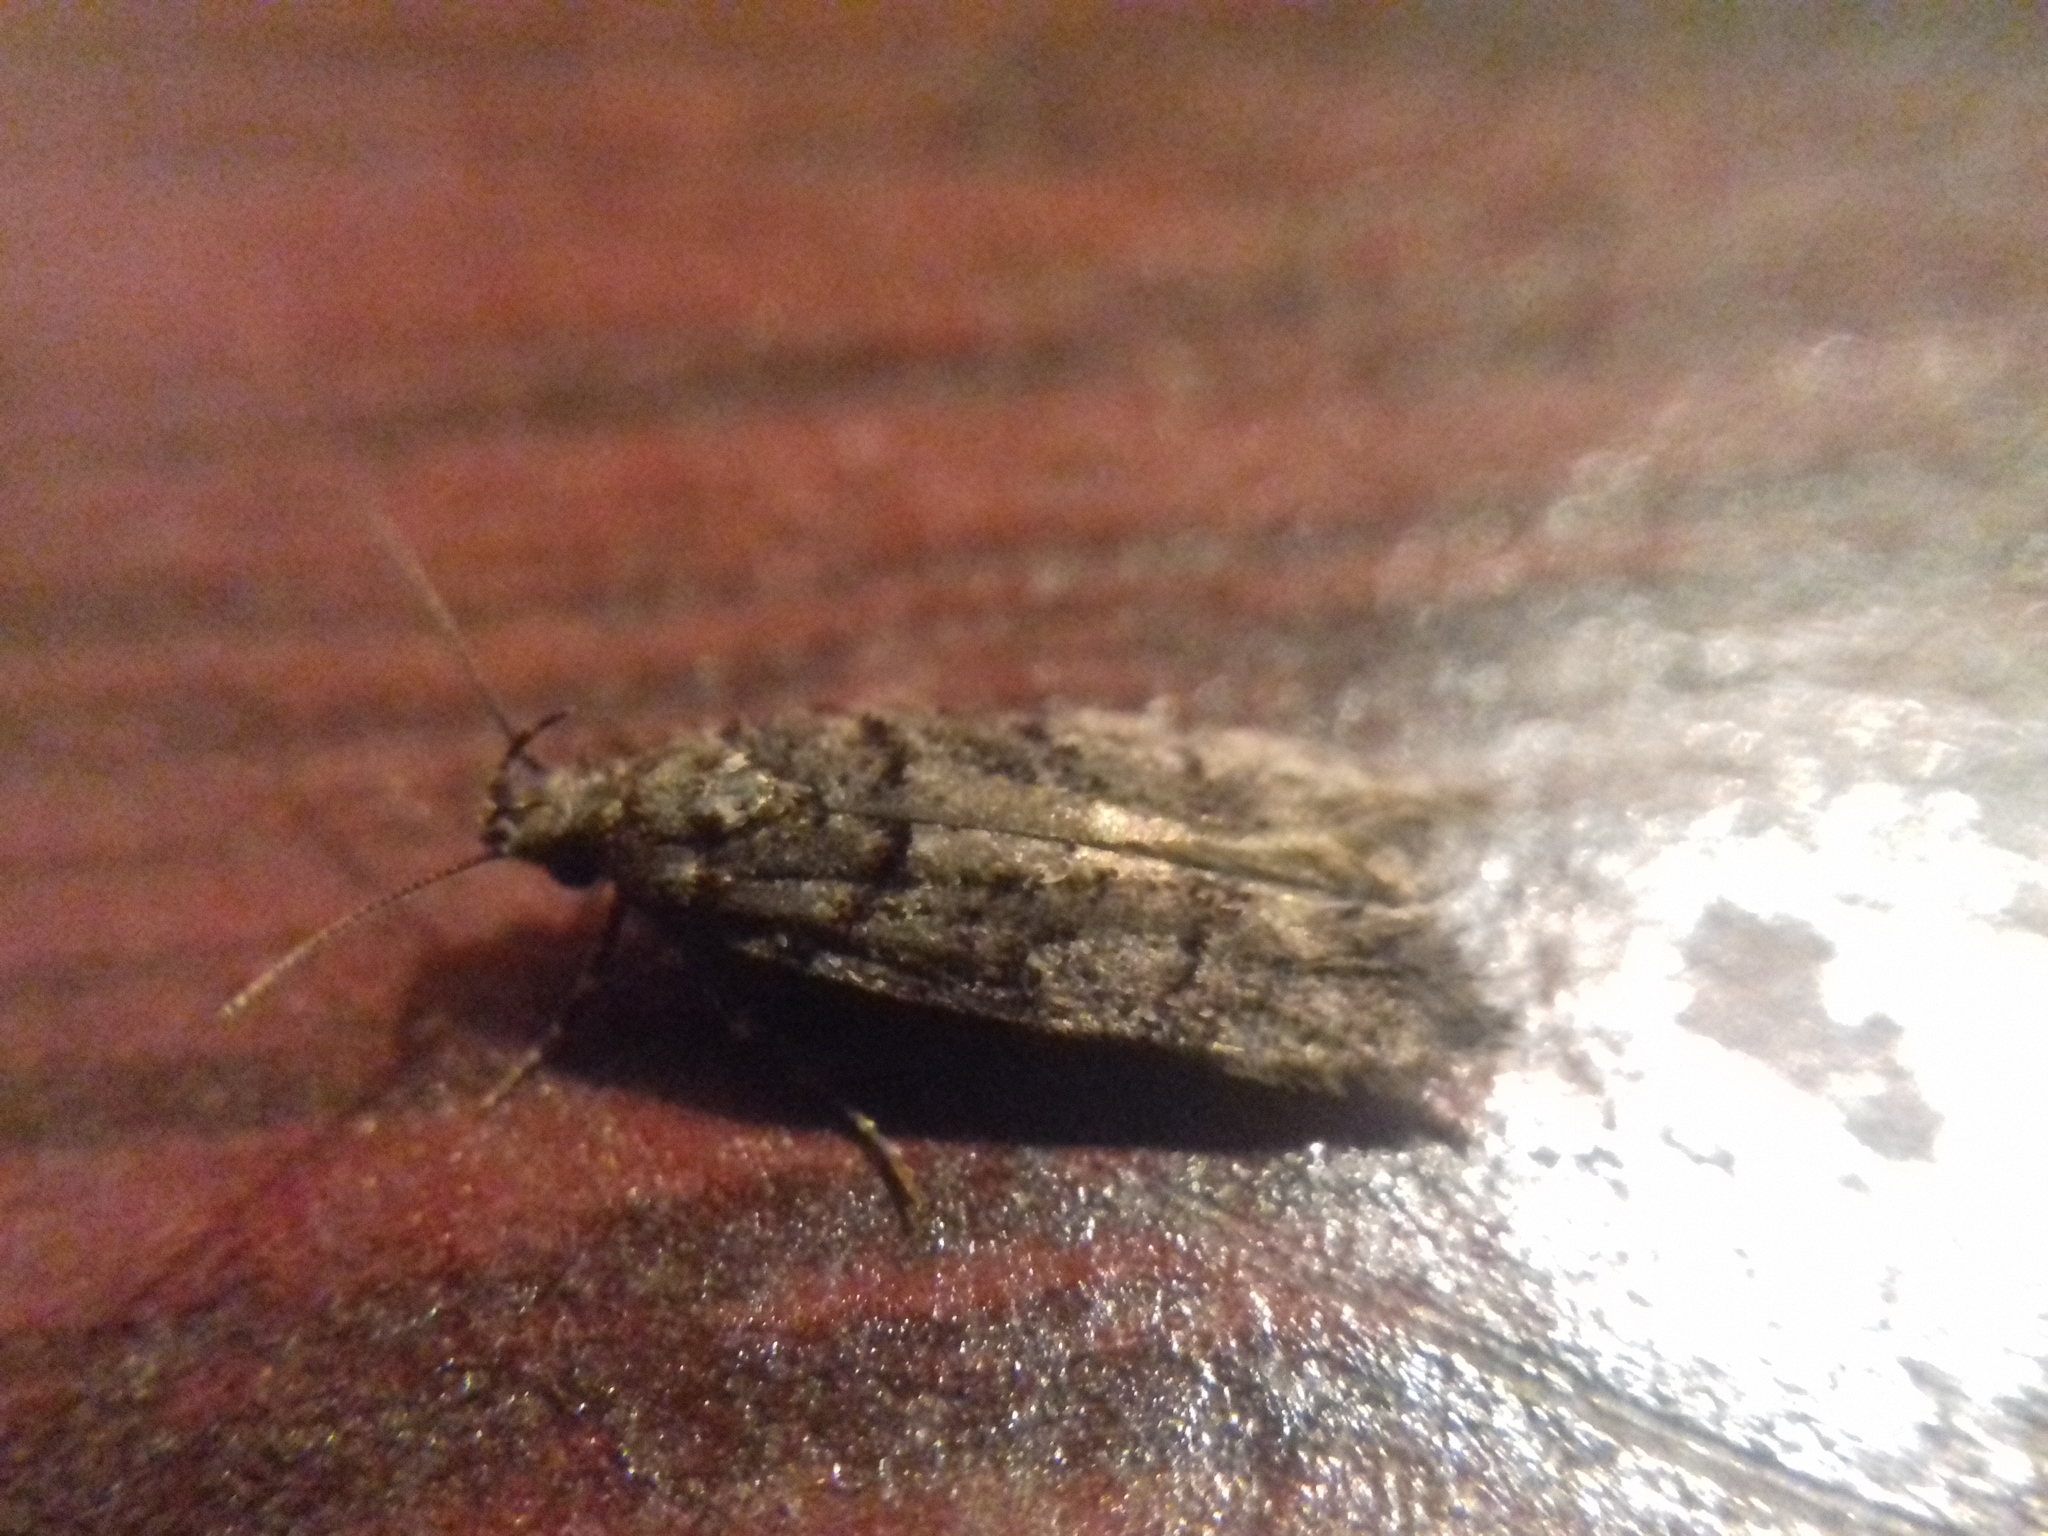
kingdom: Animalia
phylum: Arthropoda
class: Insecta
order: Lepidoptera
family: Gelechiidae
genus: Teleiopsis
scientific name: Teleiopsis diffinis
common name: Large groundling
